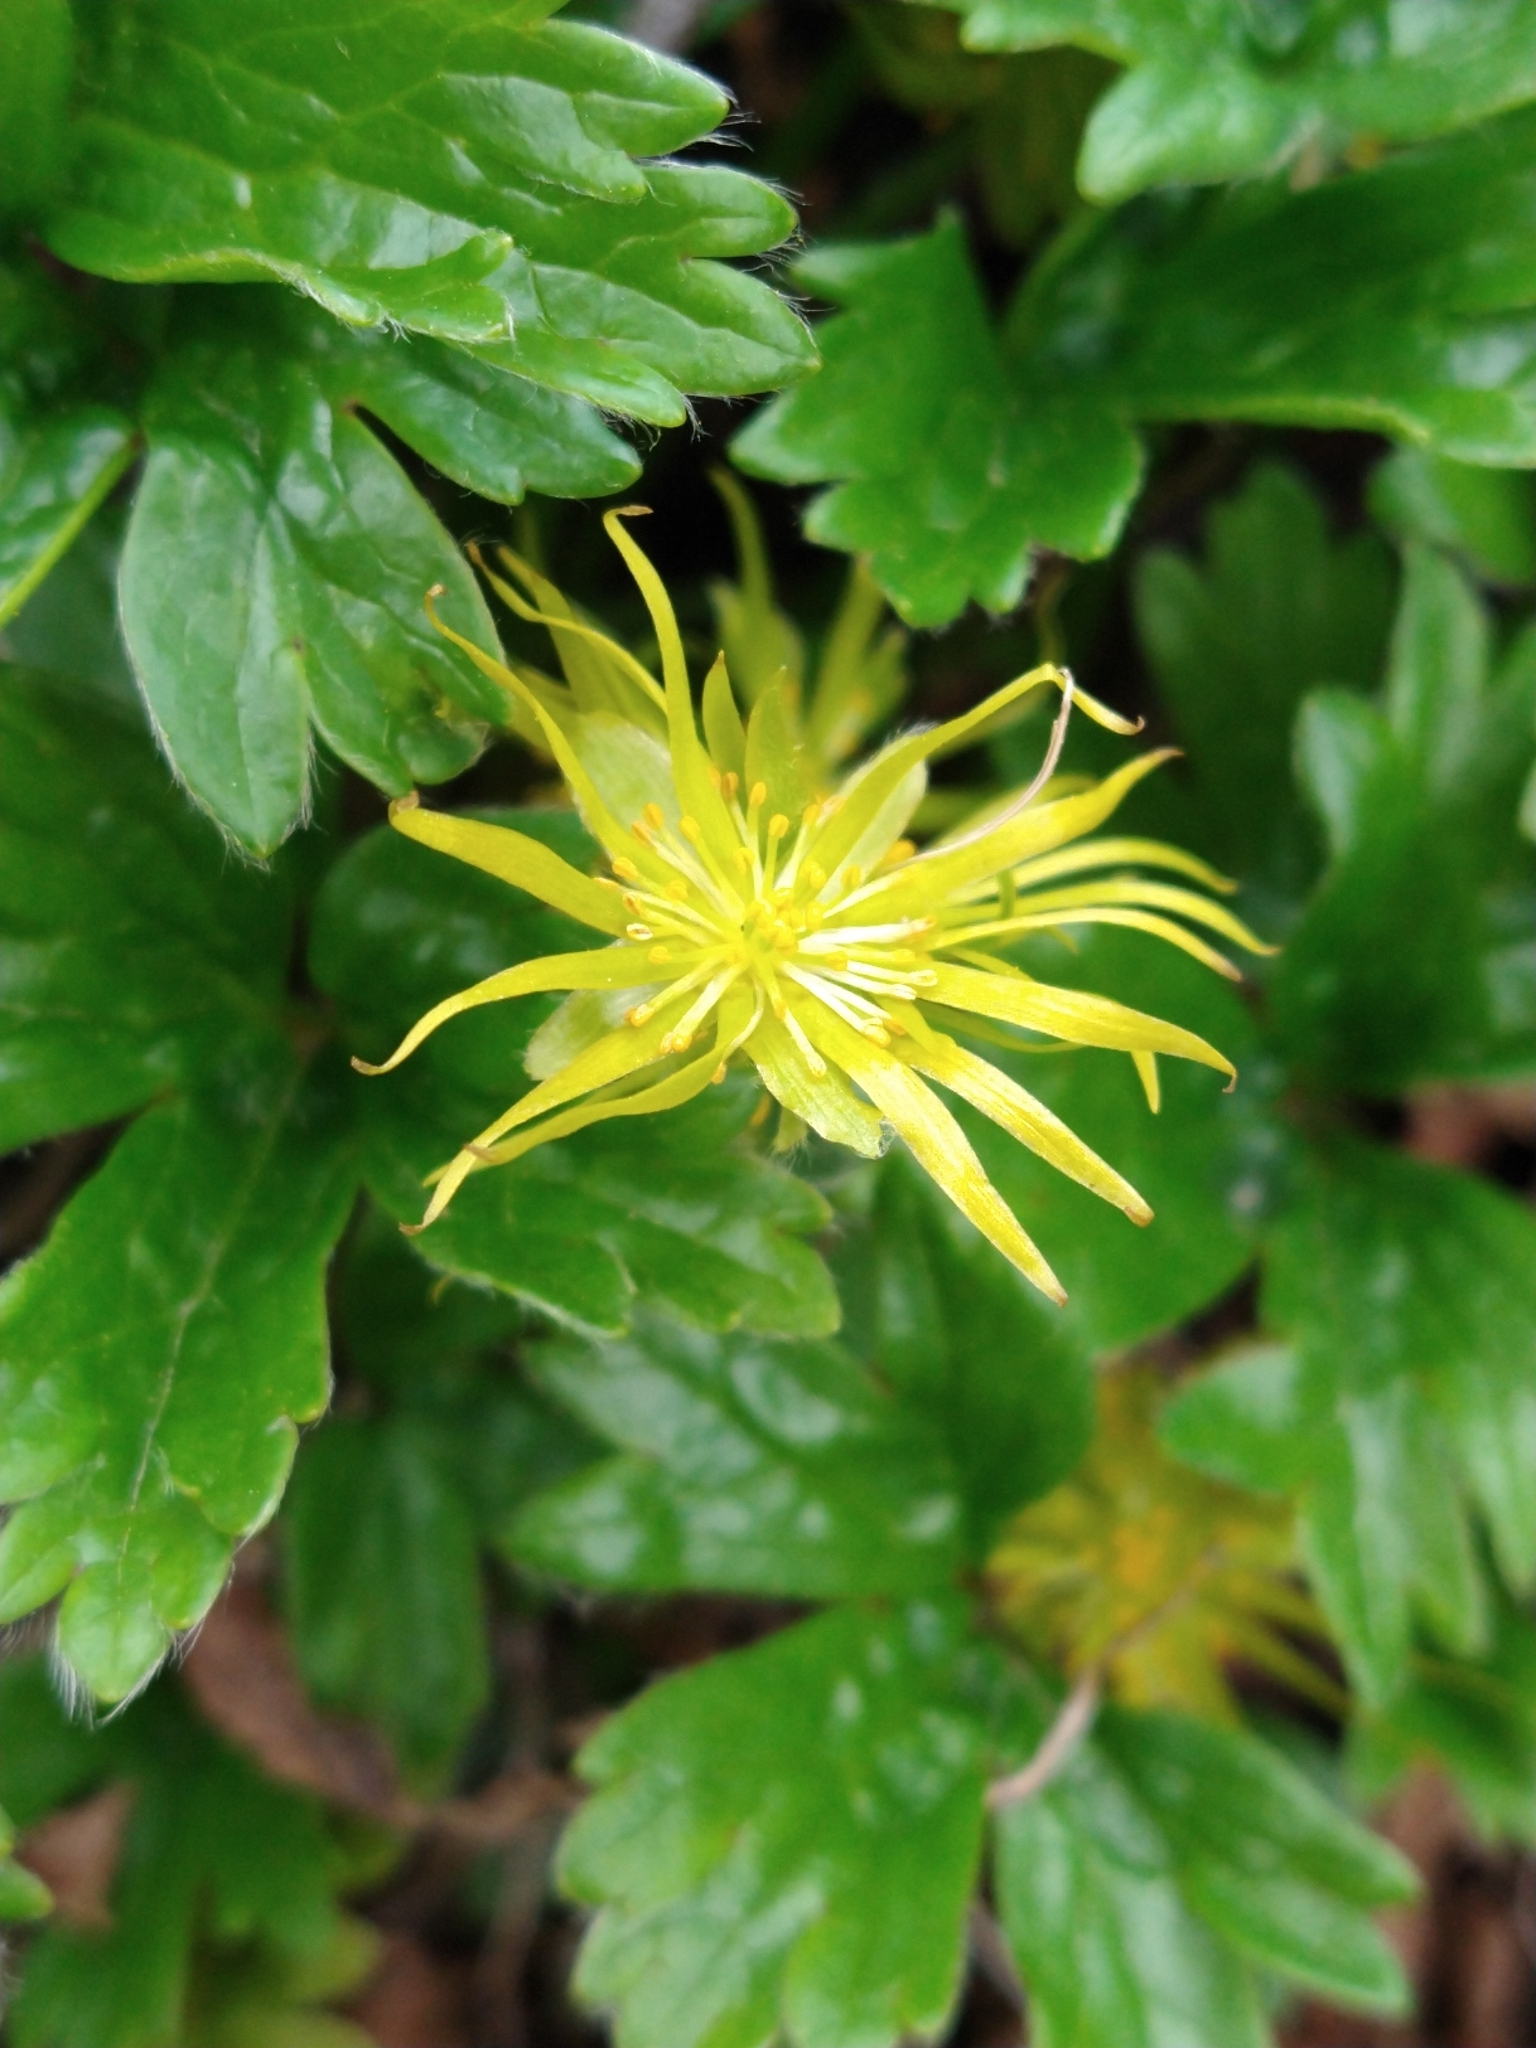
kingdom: Plantae
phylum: Tracheophyta
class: Magnoliopsida
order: Ranunculales
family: Ranunculaceae
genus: Hamadryas
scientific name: Hamadryas magellanica
